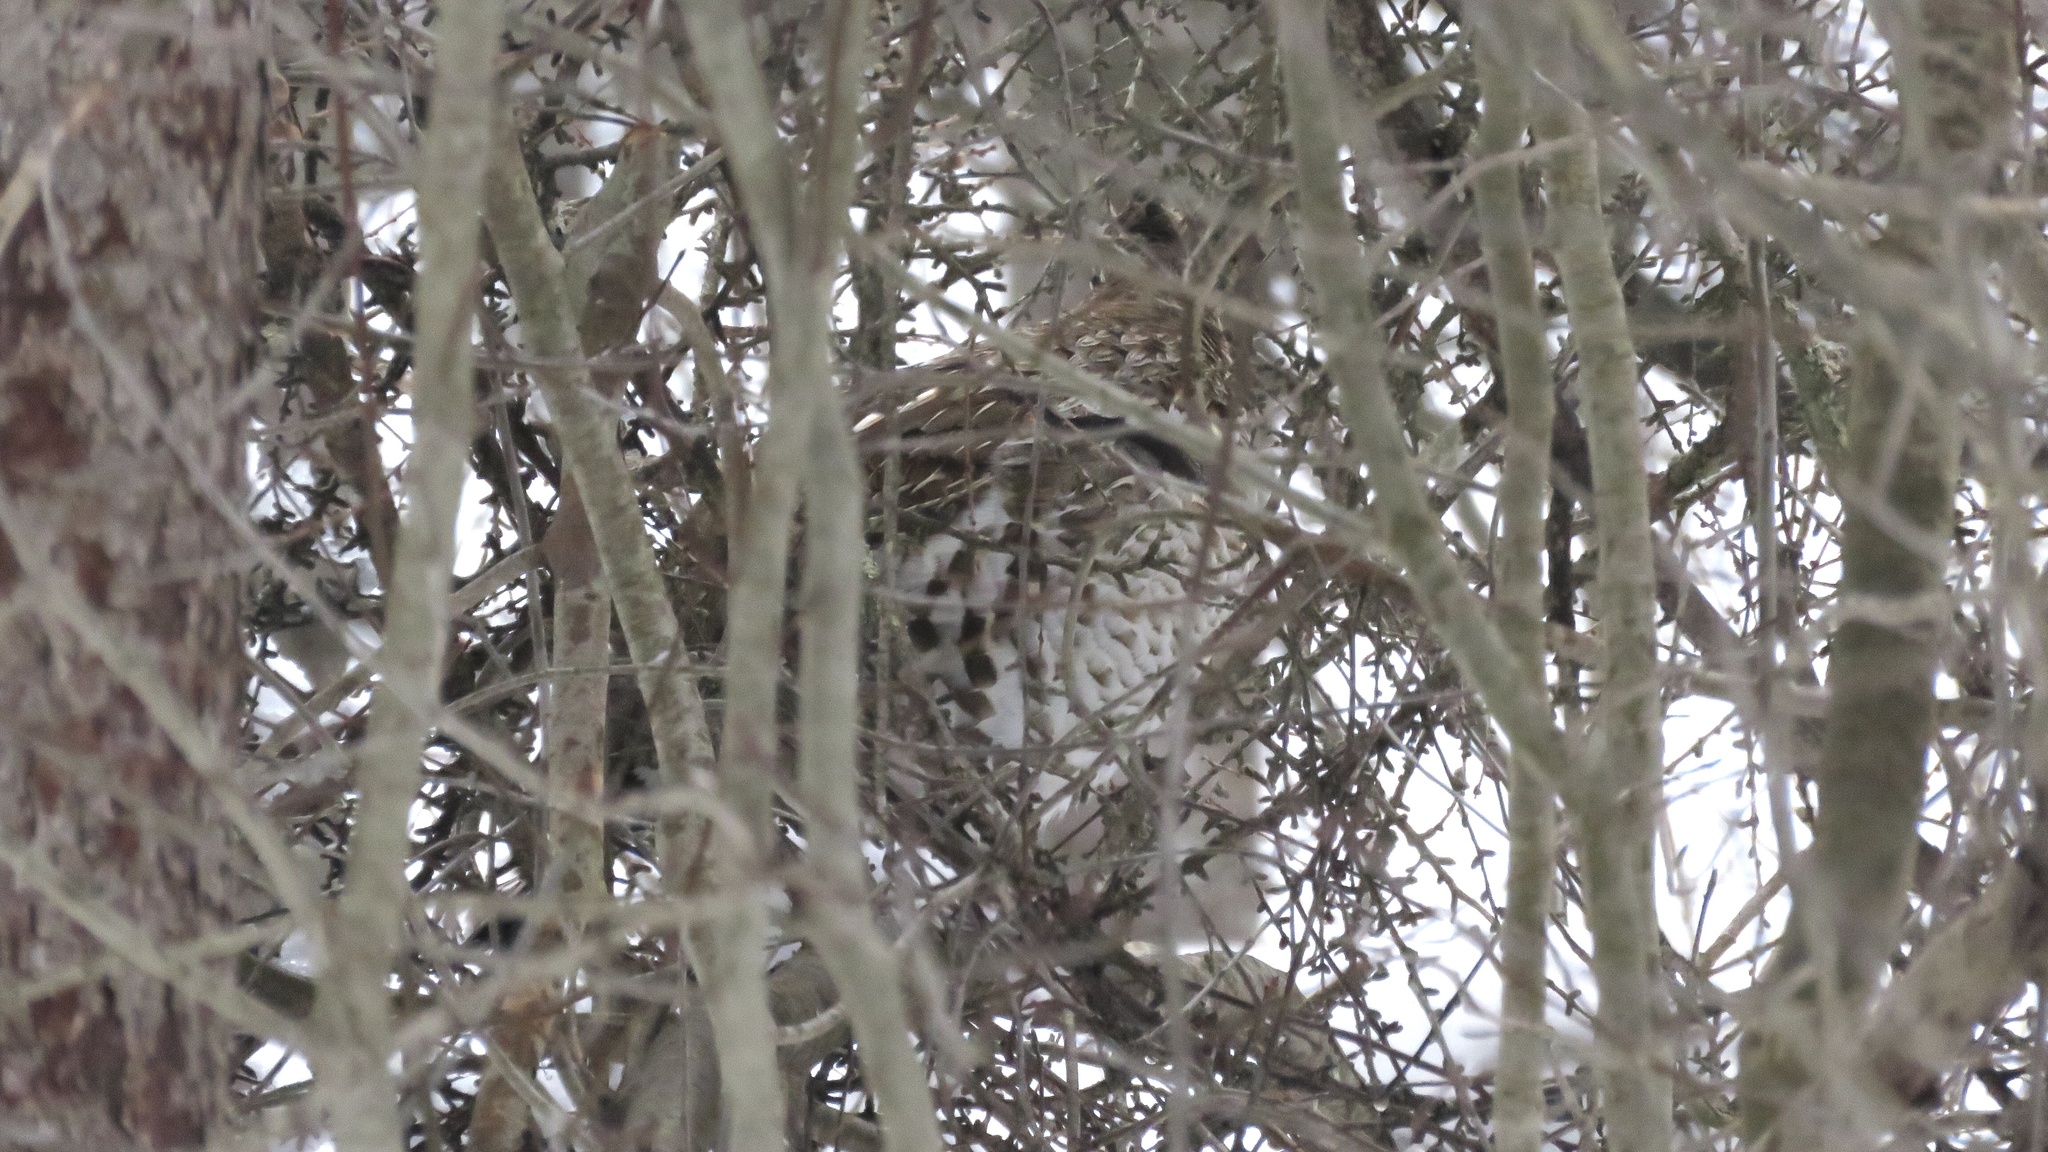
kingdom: Animalia
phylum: Chordata
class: Aves
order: Galliformes
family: Phasianidae
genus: Bonasa
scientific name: Bonasa umbellus
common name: Ruffed grouse
